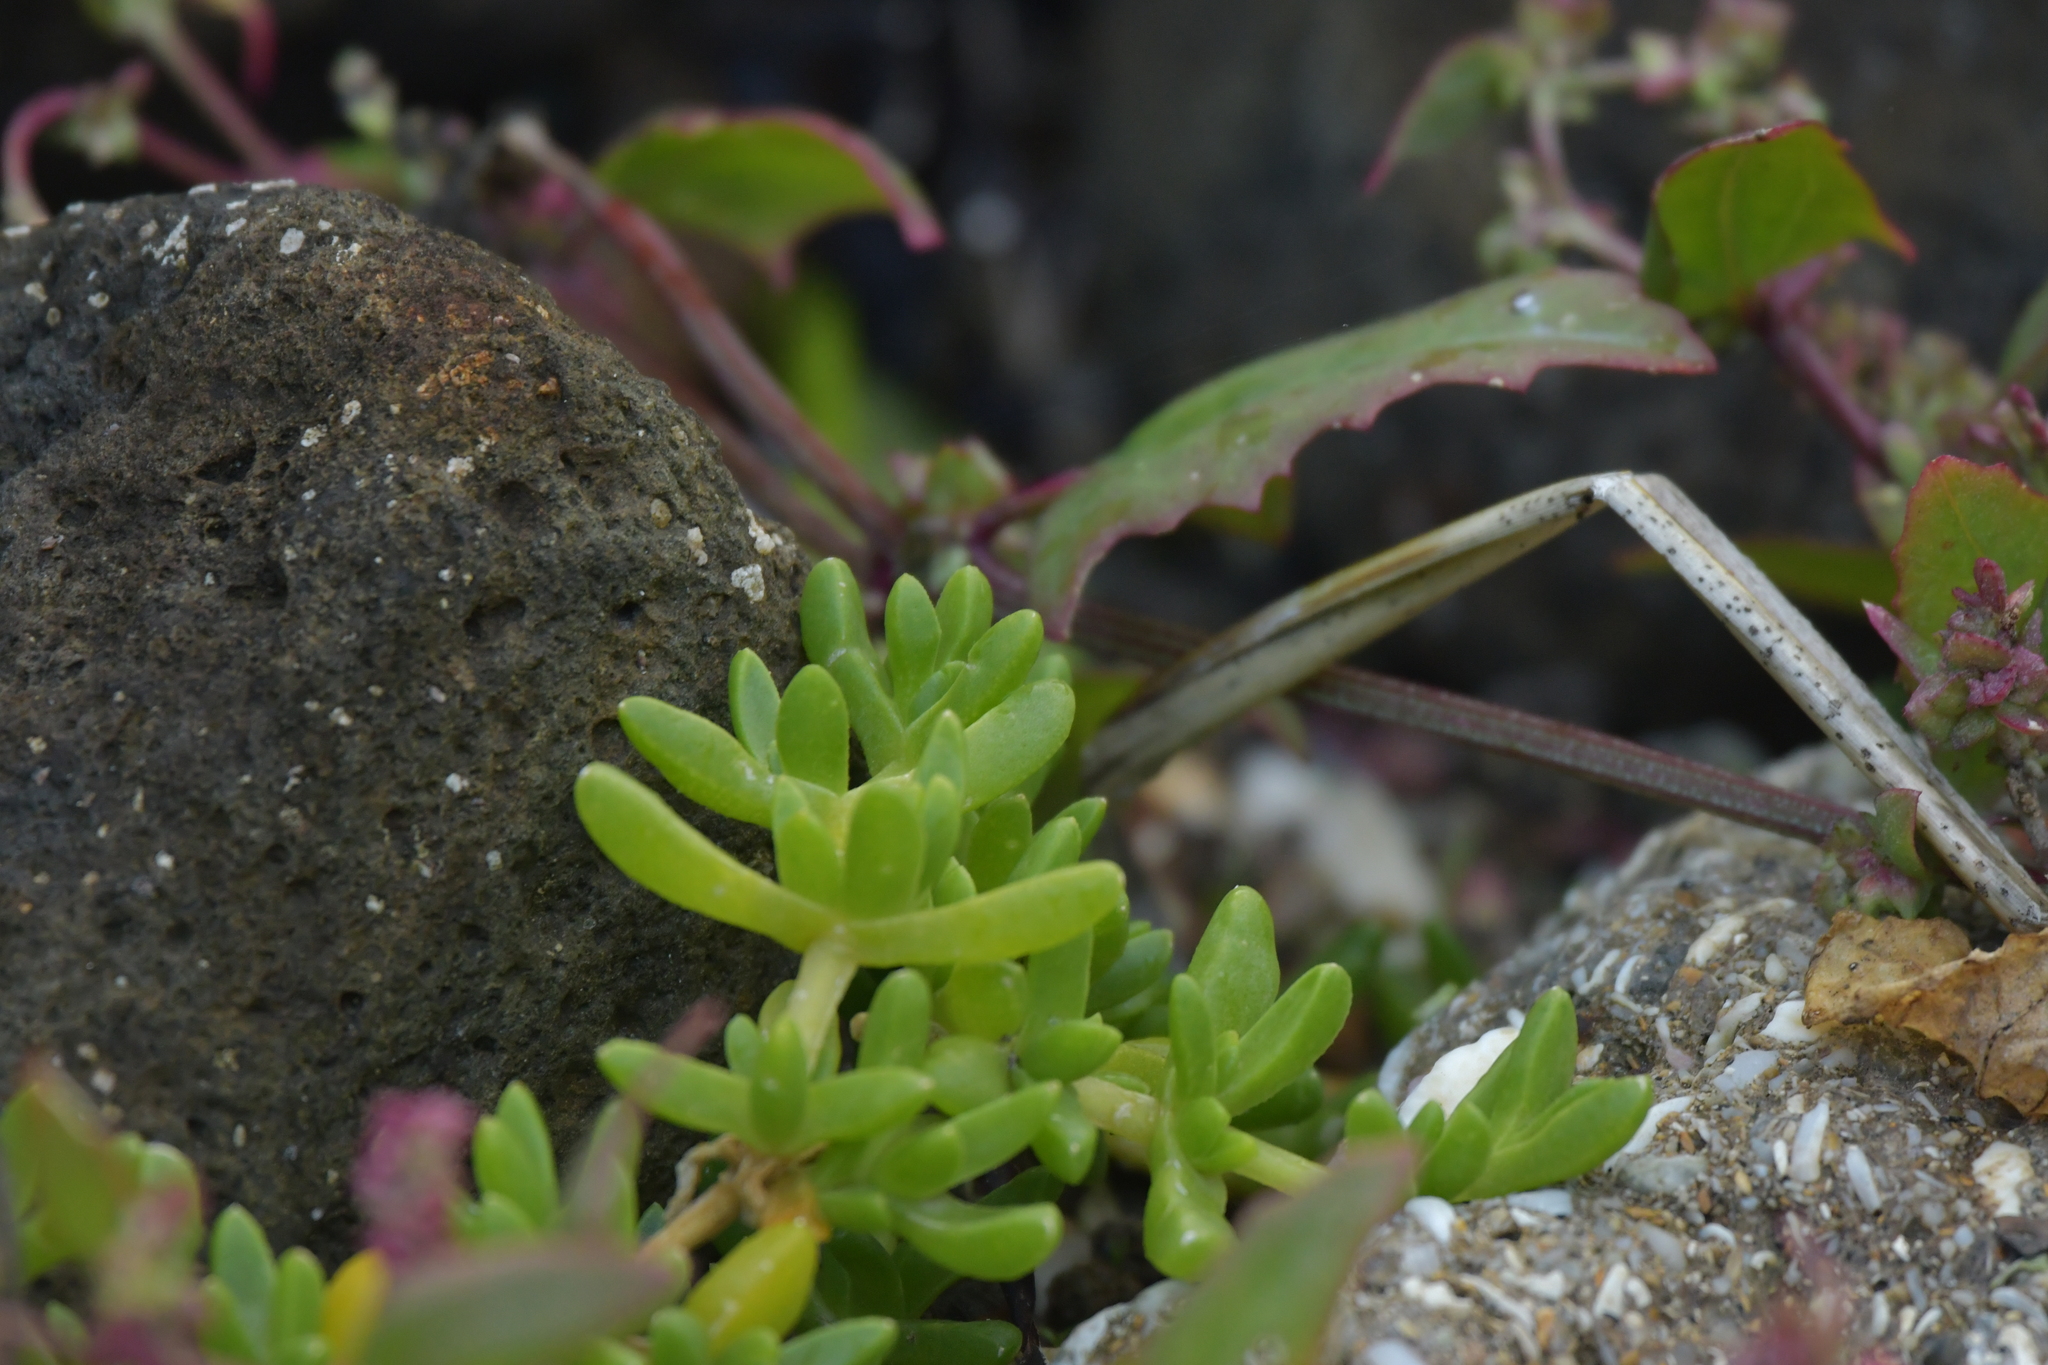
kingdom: Plantae
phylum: Tracheophyta
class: Magnoliopsida
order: Caryophyllales
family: Aizoaceae
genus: Disphyma
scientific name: Disphyma papillatum
